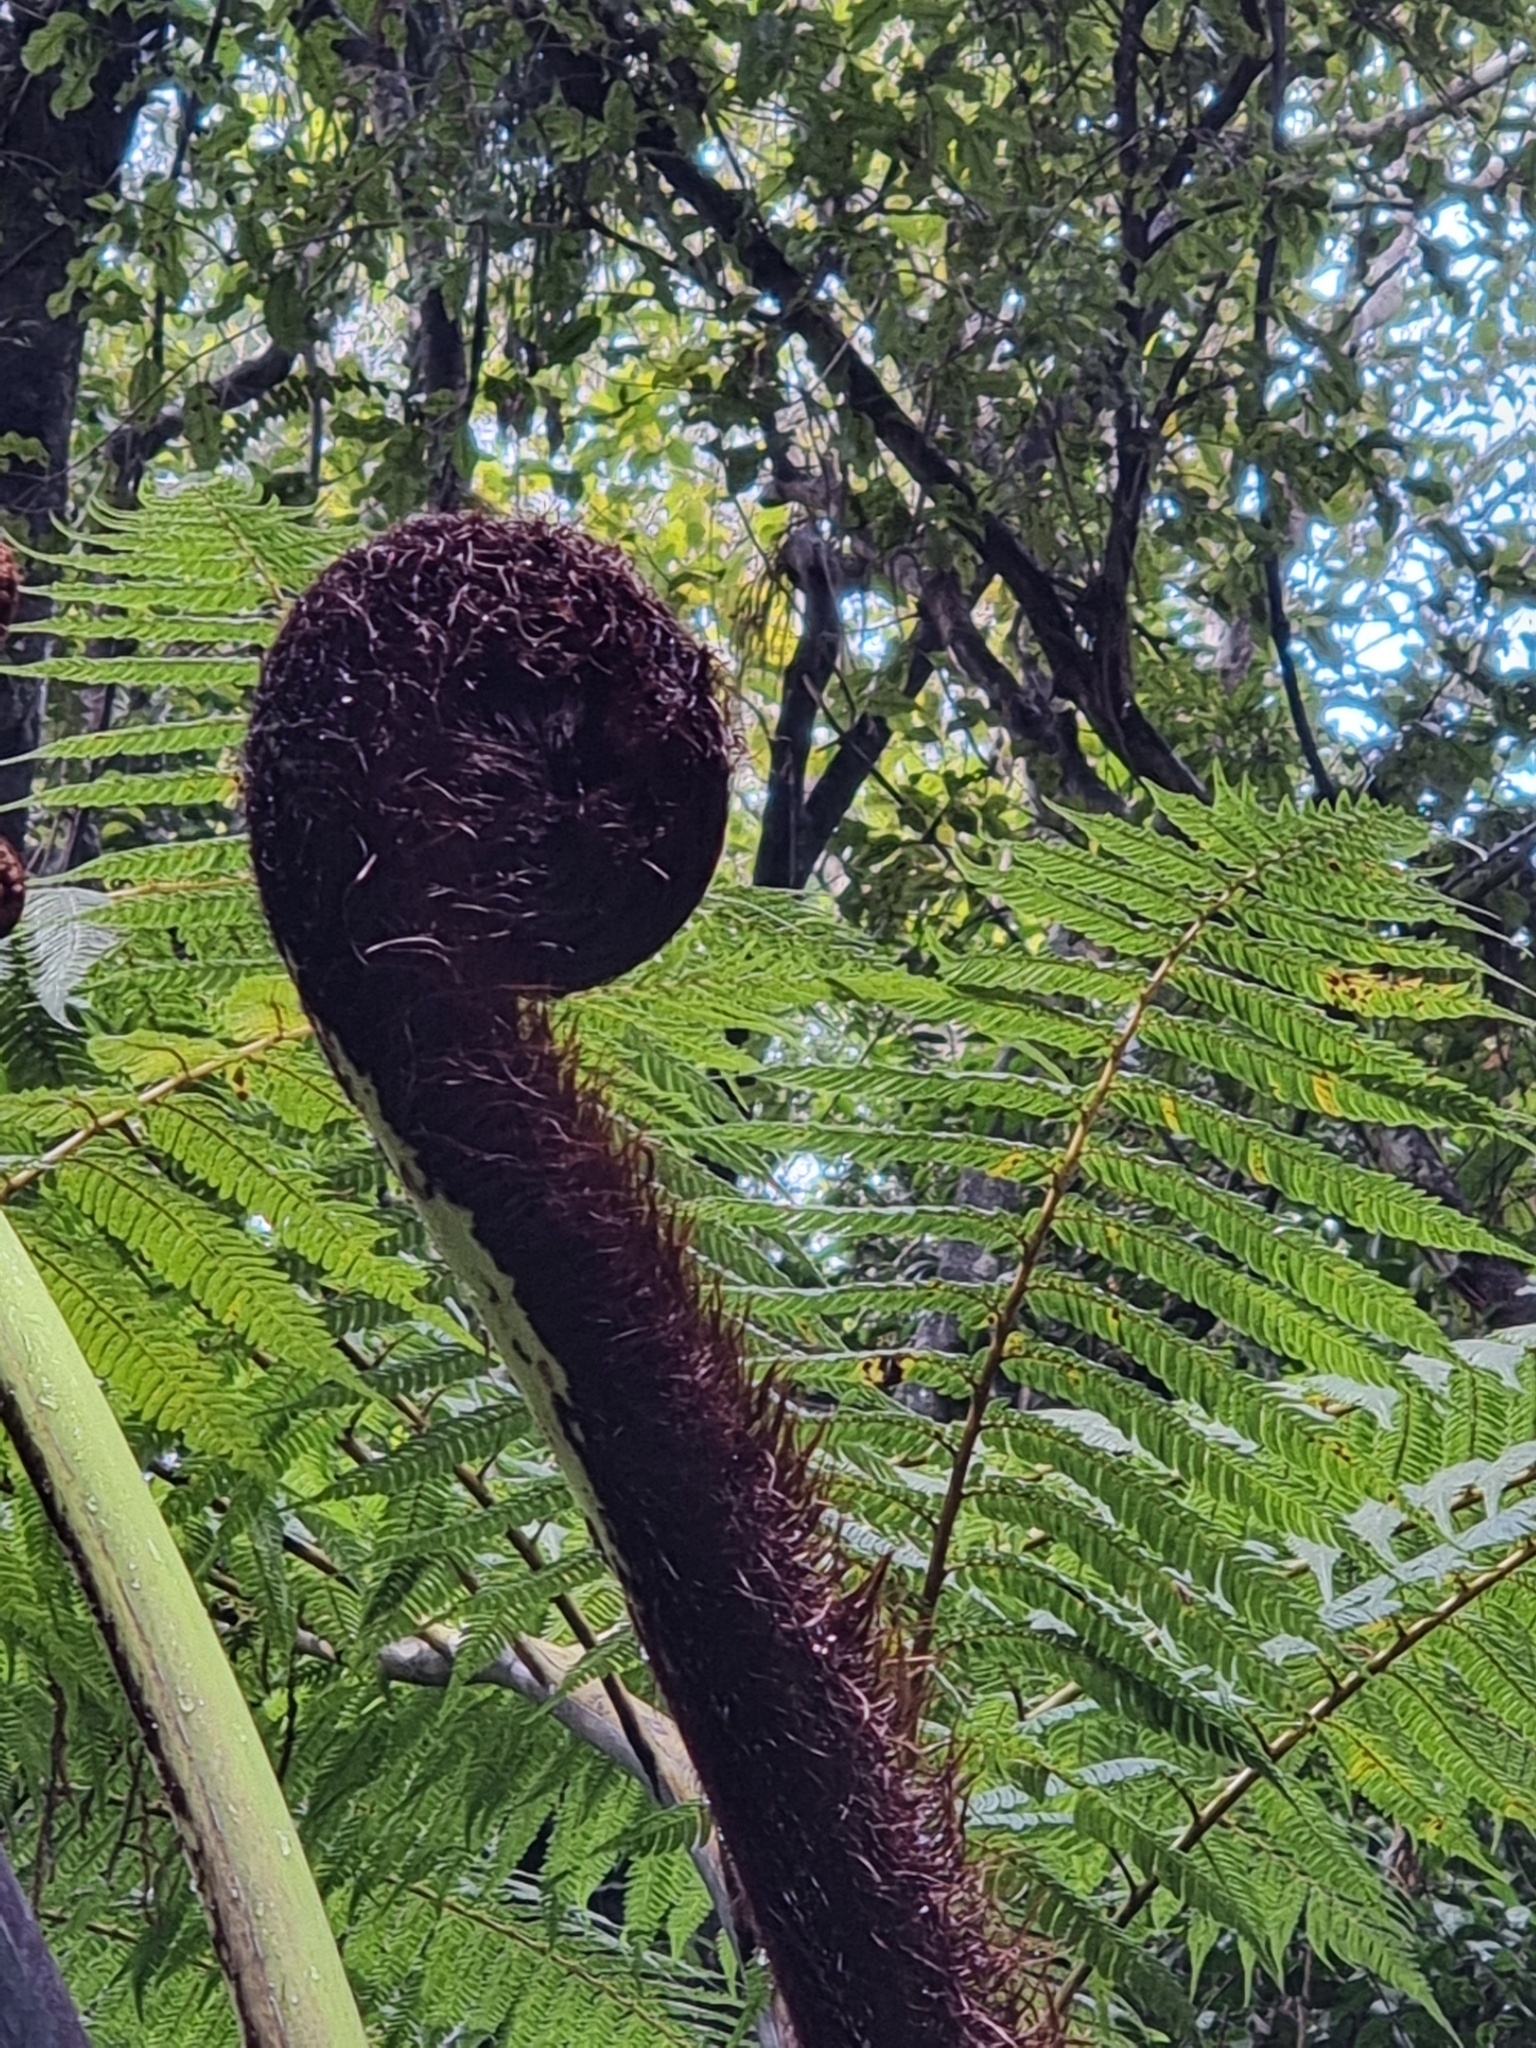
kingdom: Plantae
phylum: Tracheophyta
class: Polypodiopsida
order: Cyatheales
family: Cyatheaceae
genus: Sphaeropteris
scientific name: Sphaeropteris medullaris
